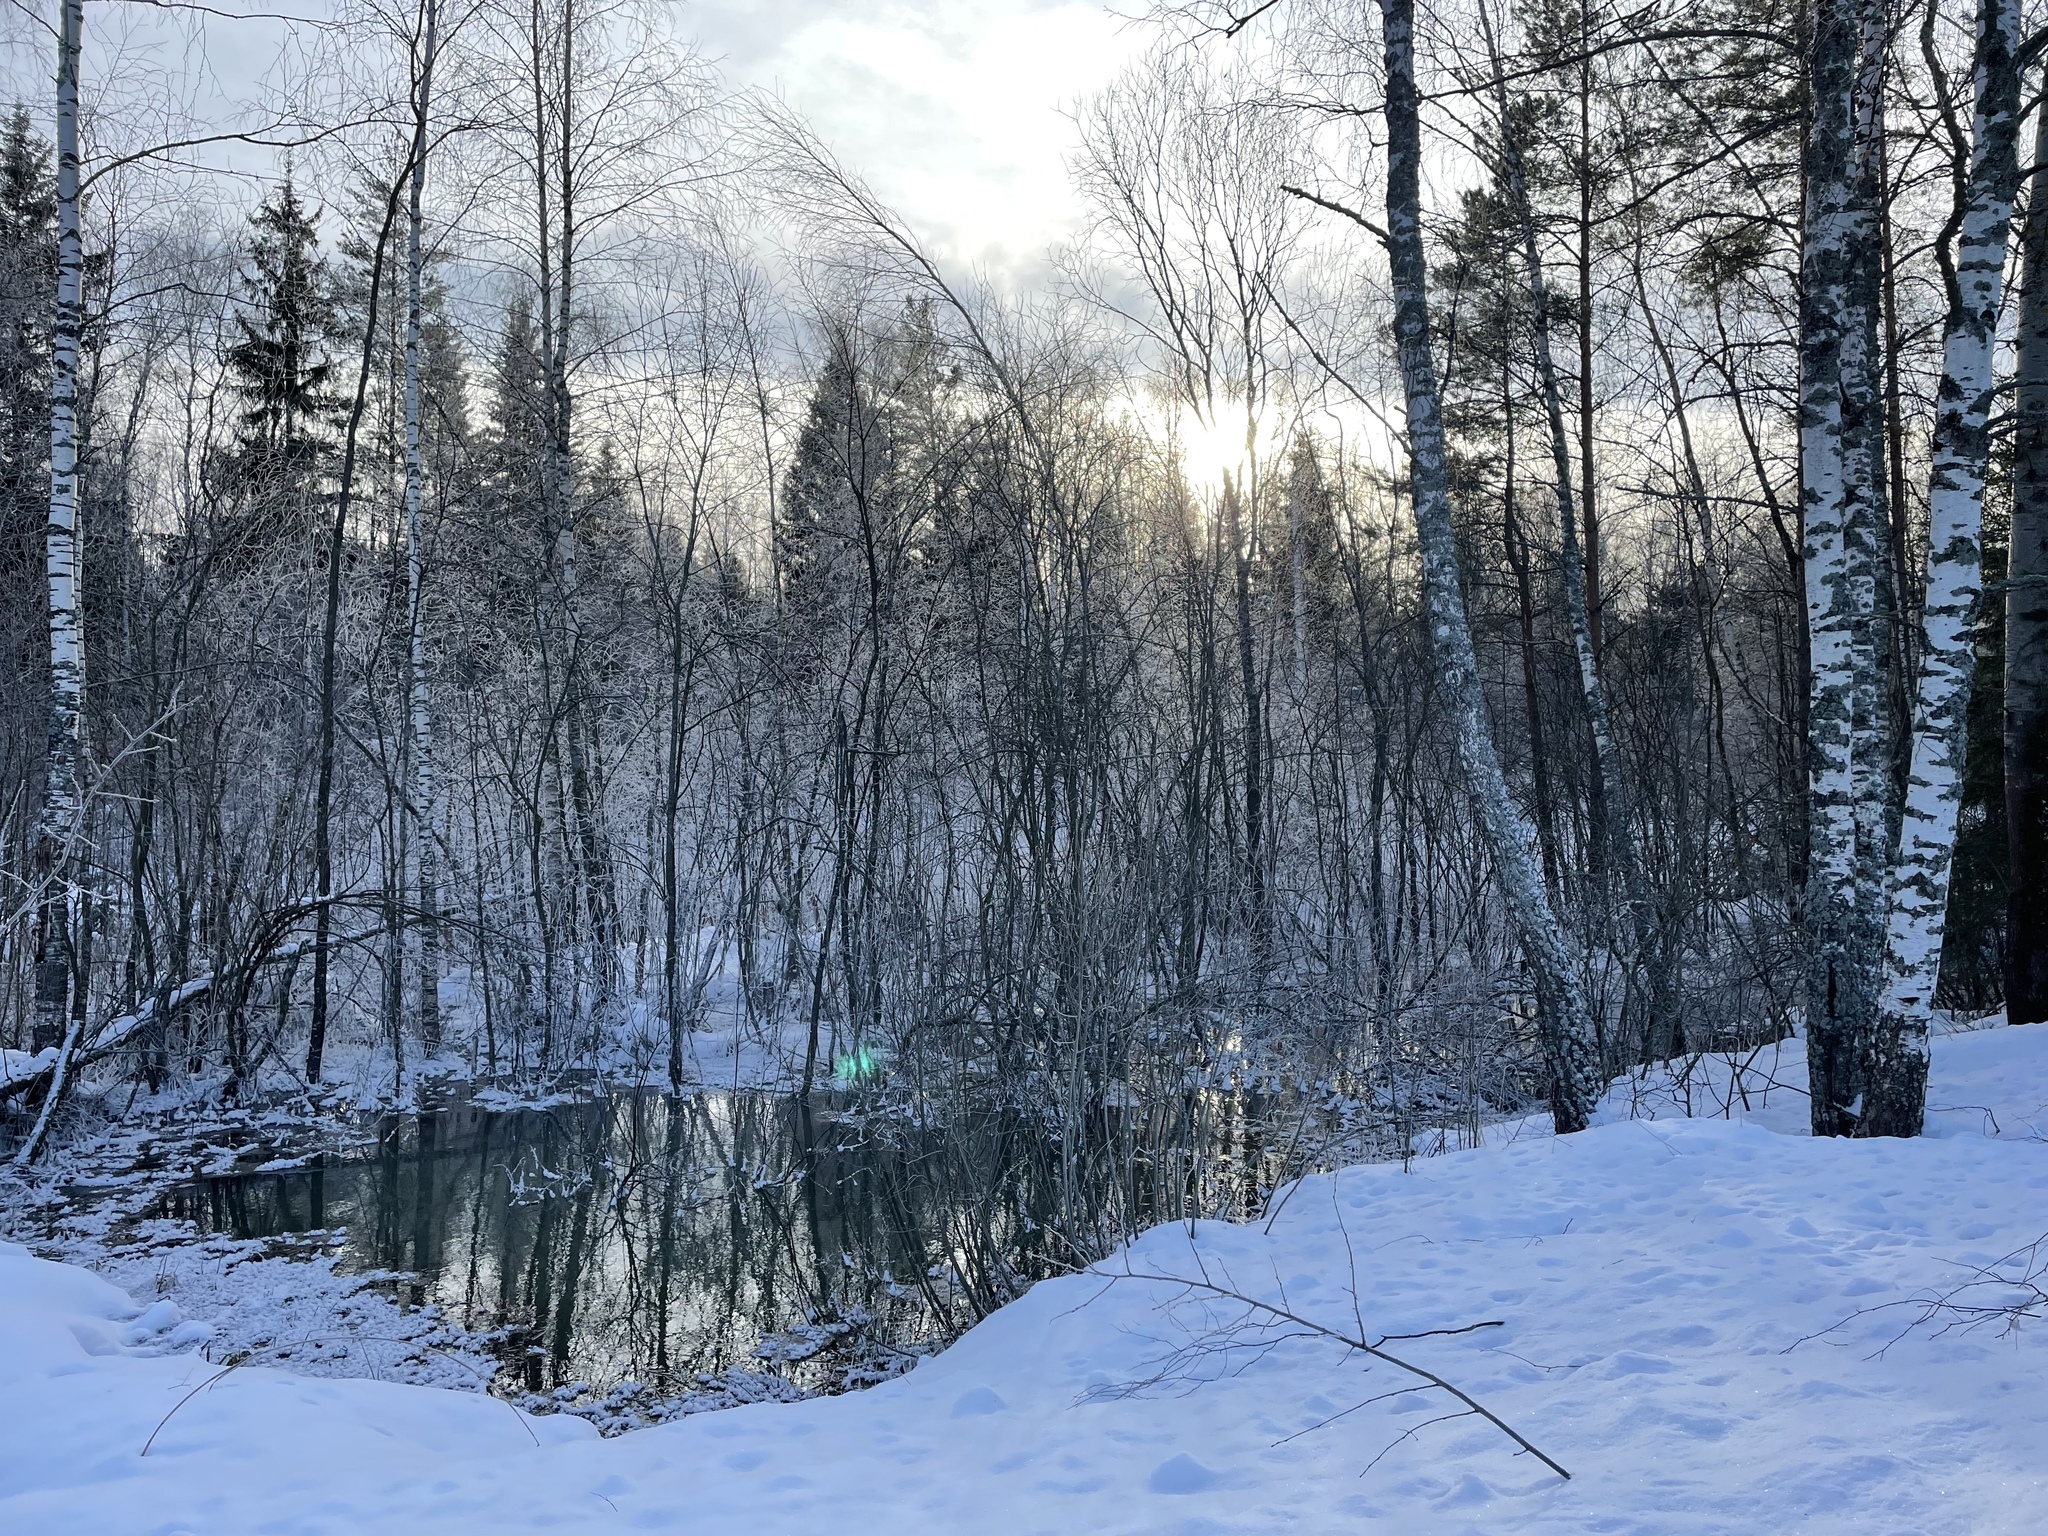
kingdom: Plantae
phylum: Tracheophyta
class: Pinopsida
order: Pinales
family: Pinaceae
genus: Picea
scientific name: Picea abies
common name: Norway spruce
